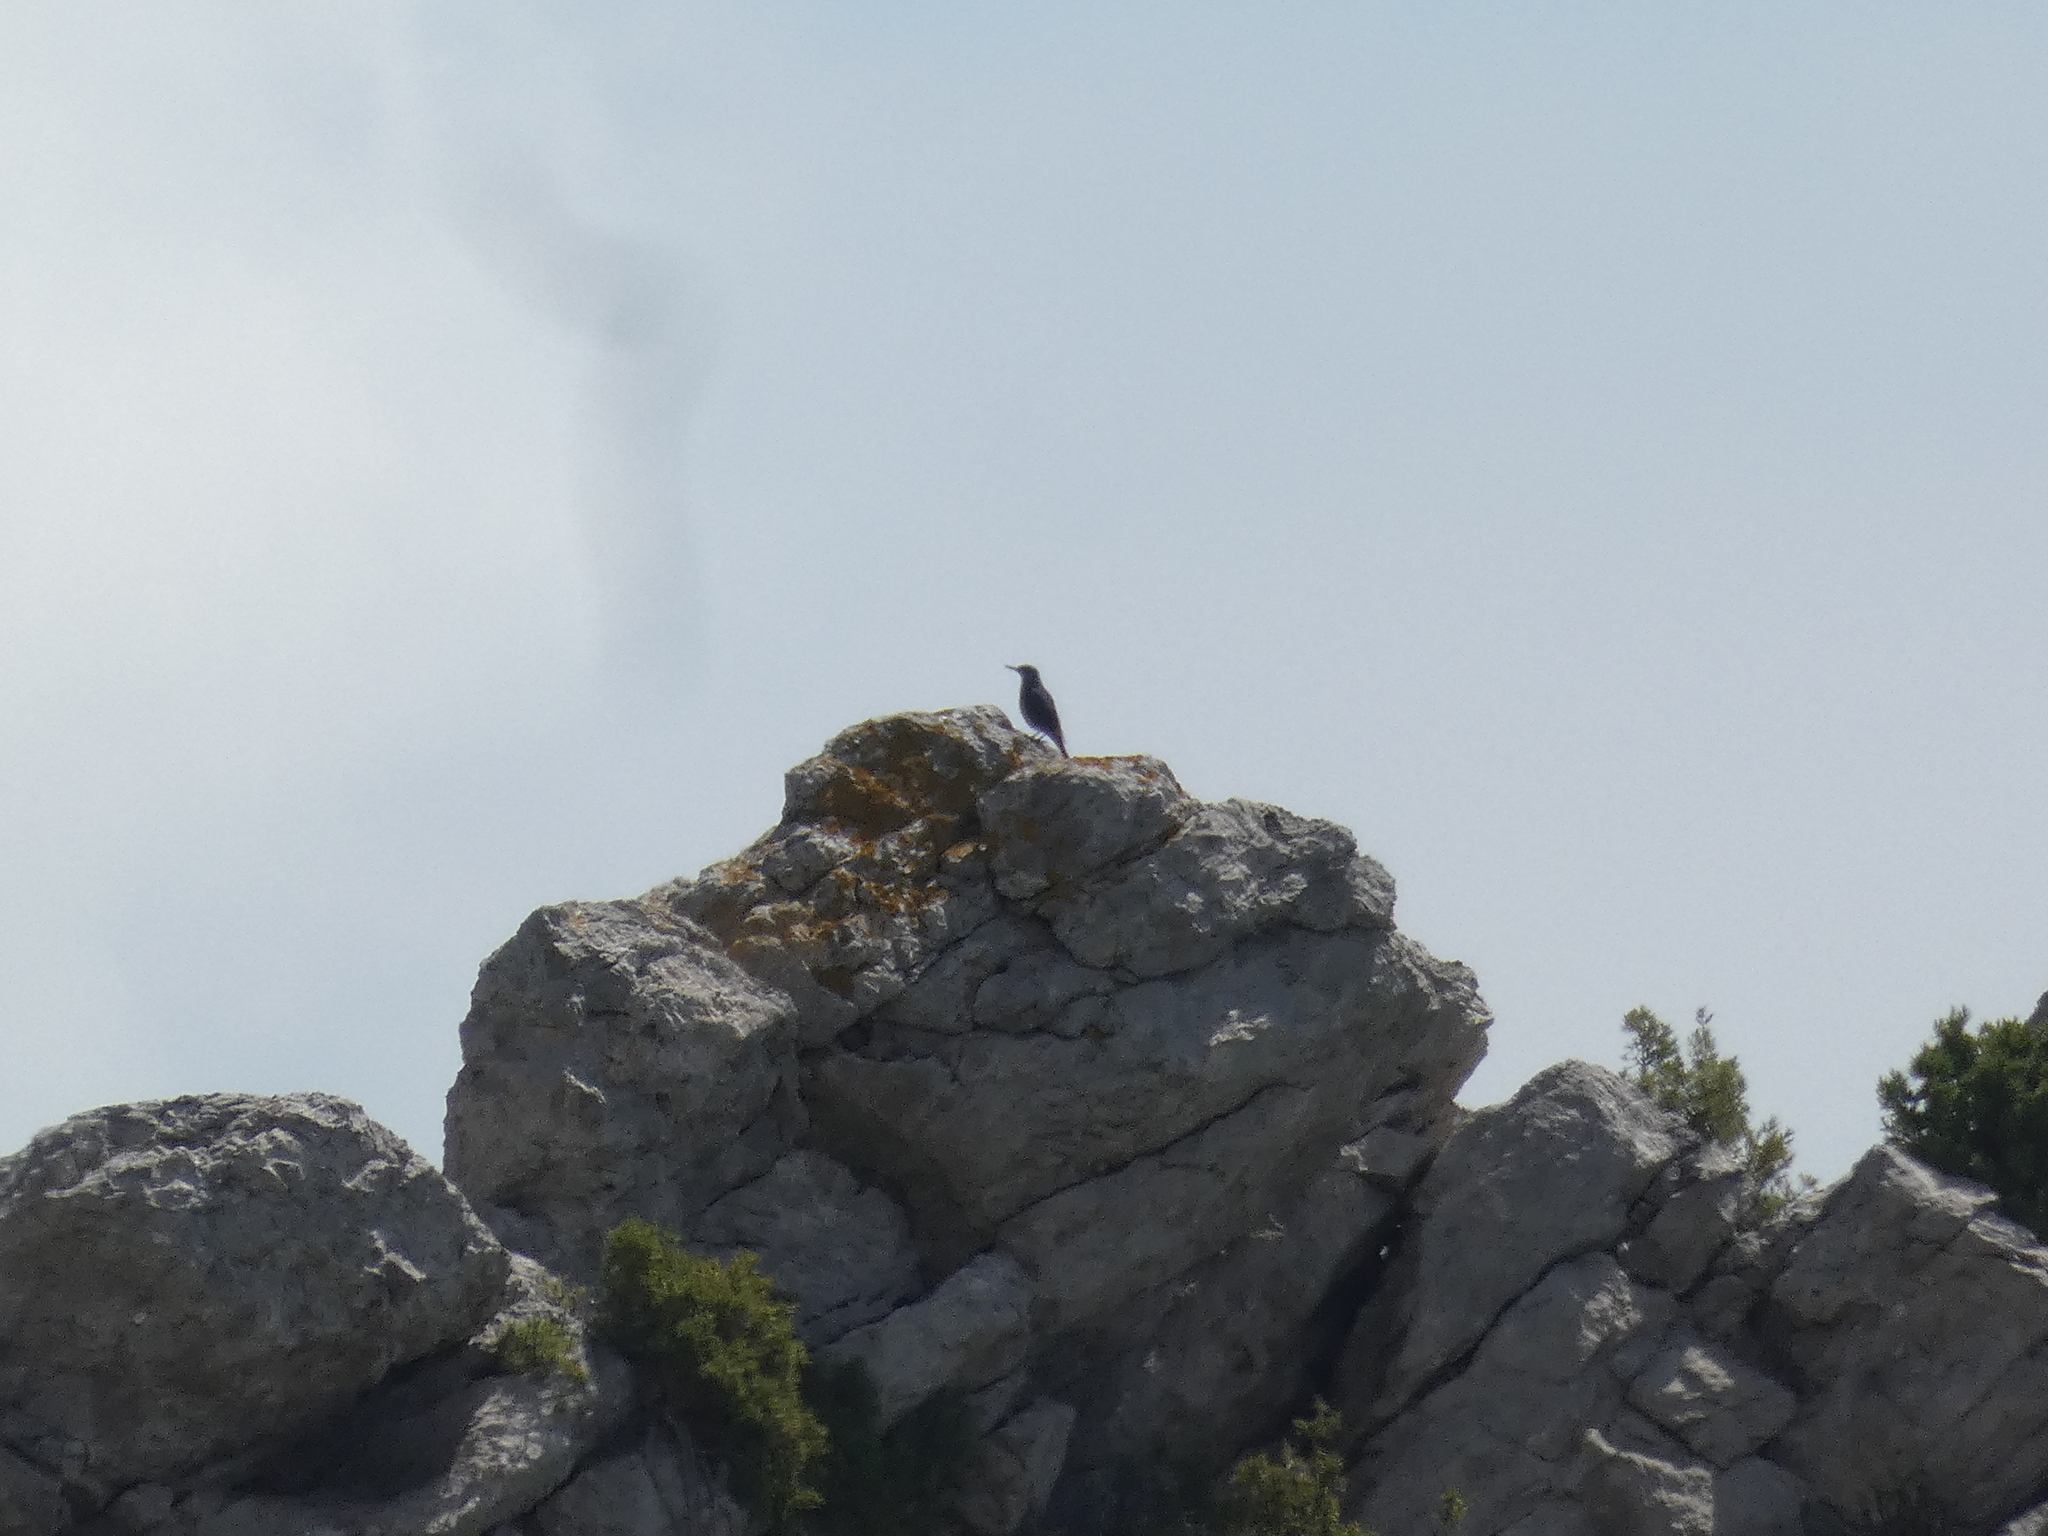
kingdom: Animalia
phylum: Chordata
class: Aves
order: Passeriformes
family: Muscicapidae
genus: Monticola
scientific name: Monticola solitarius
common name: Blue rock thrush
